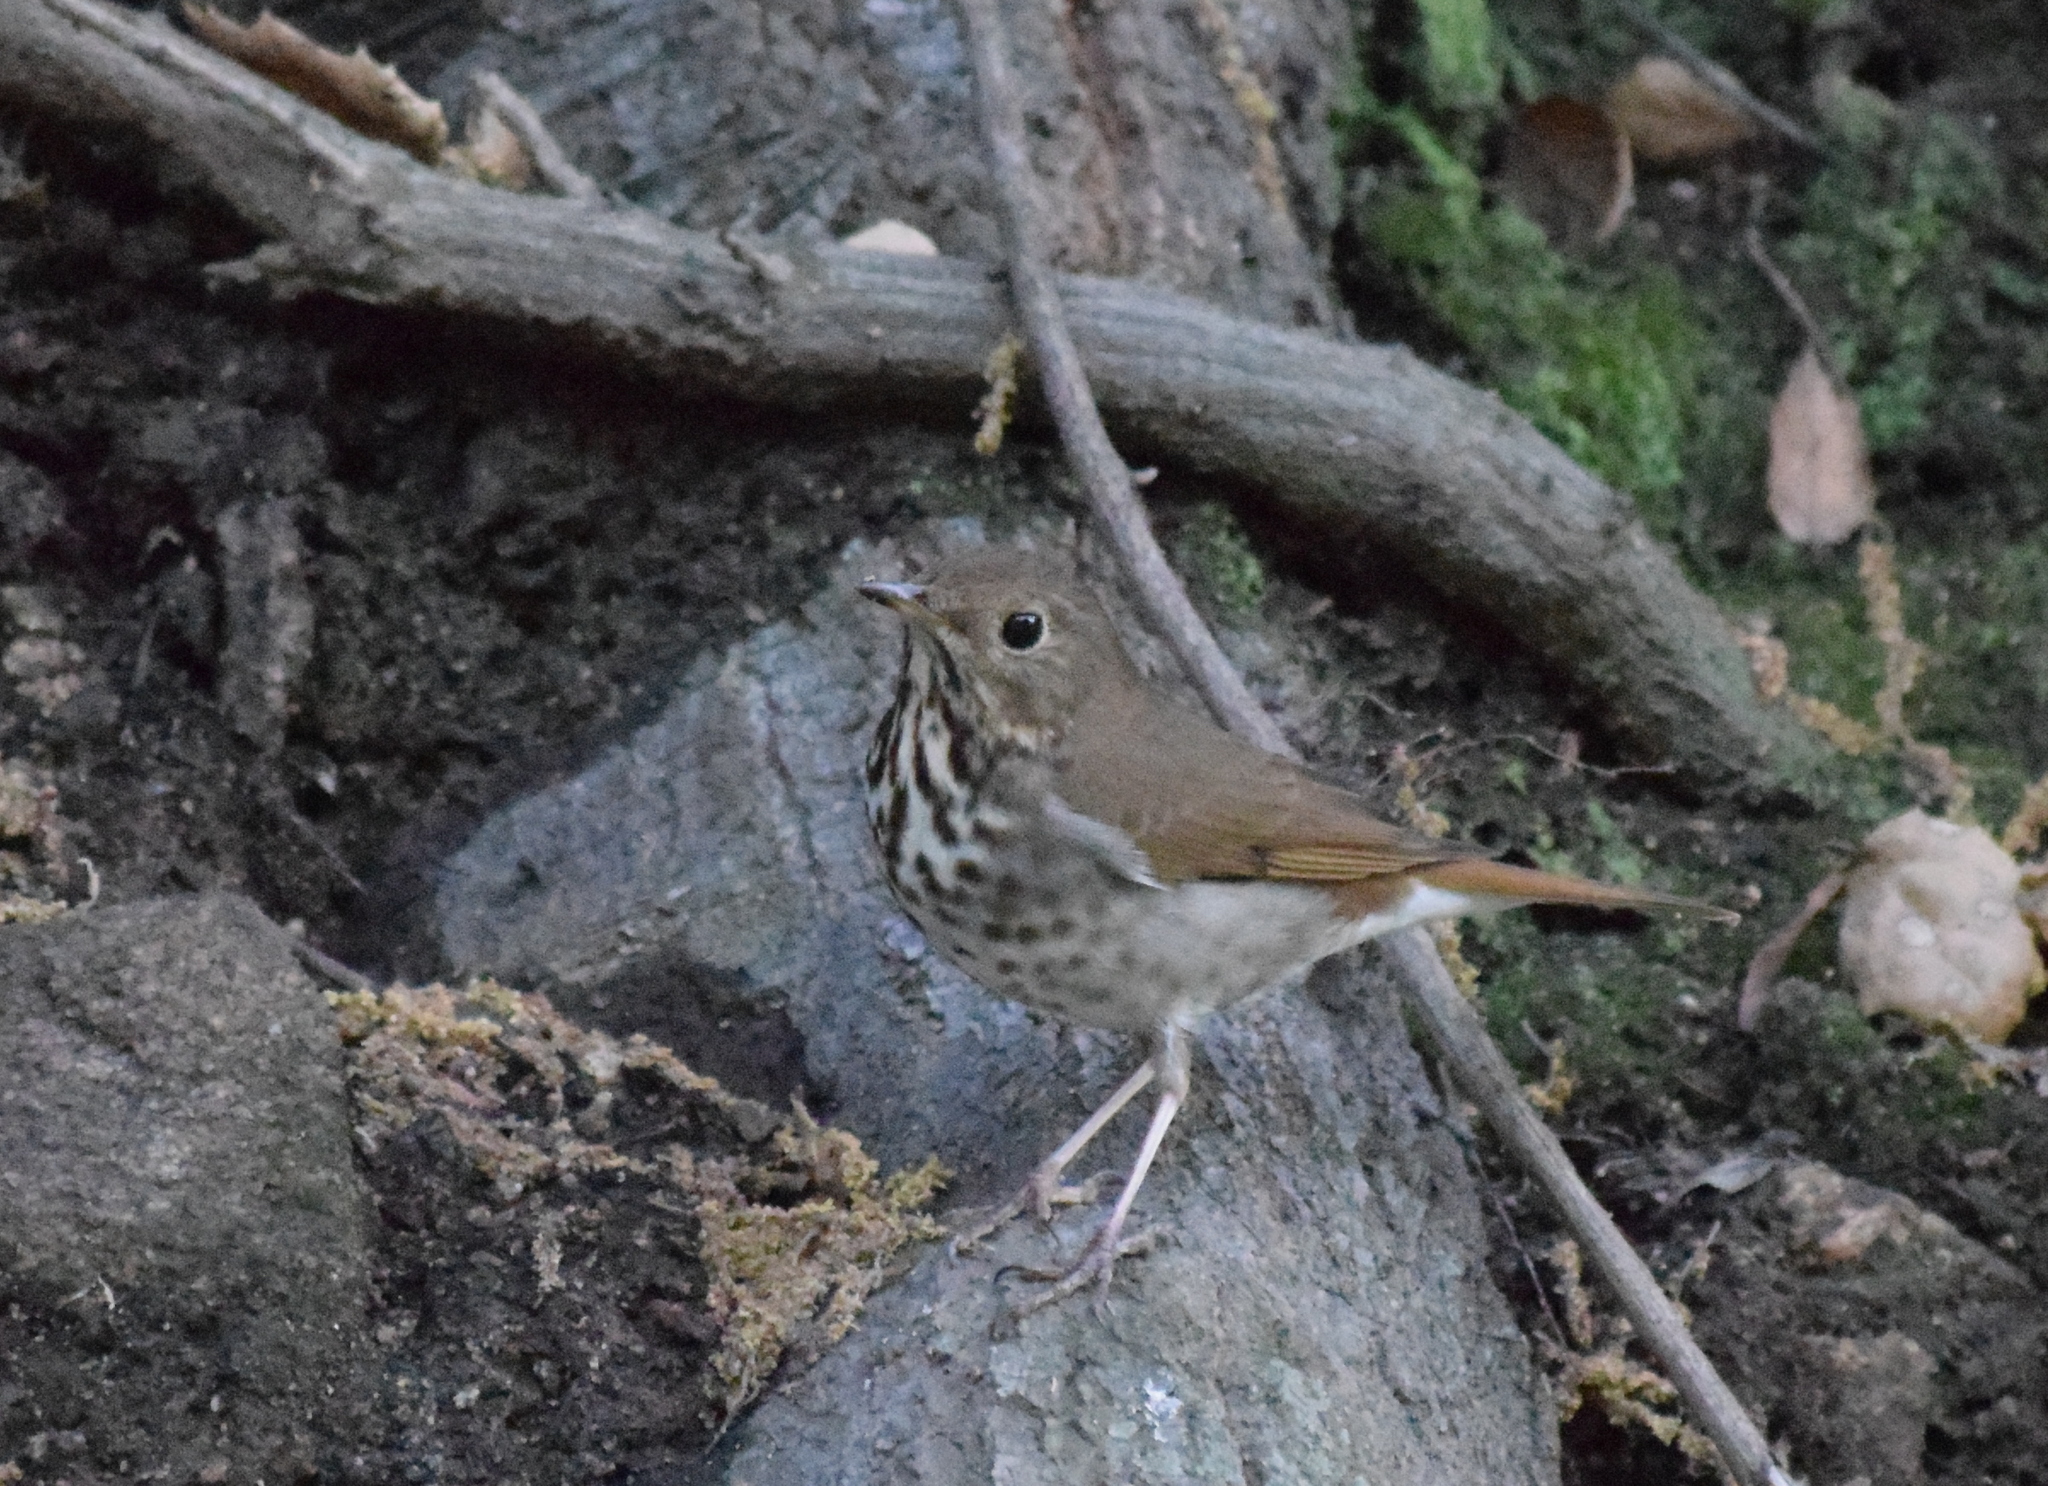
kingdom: Animalia
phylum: Chordata
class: Aves
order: Passeriformes
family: Turdidae
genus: Catharus
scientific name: Catharus guttatus
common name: Hermit thrush
